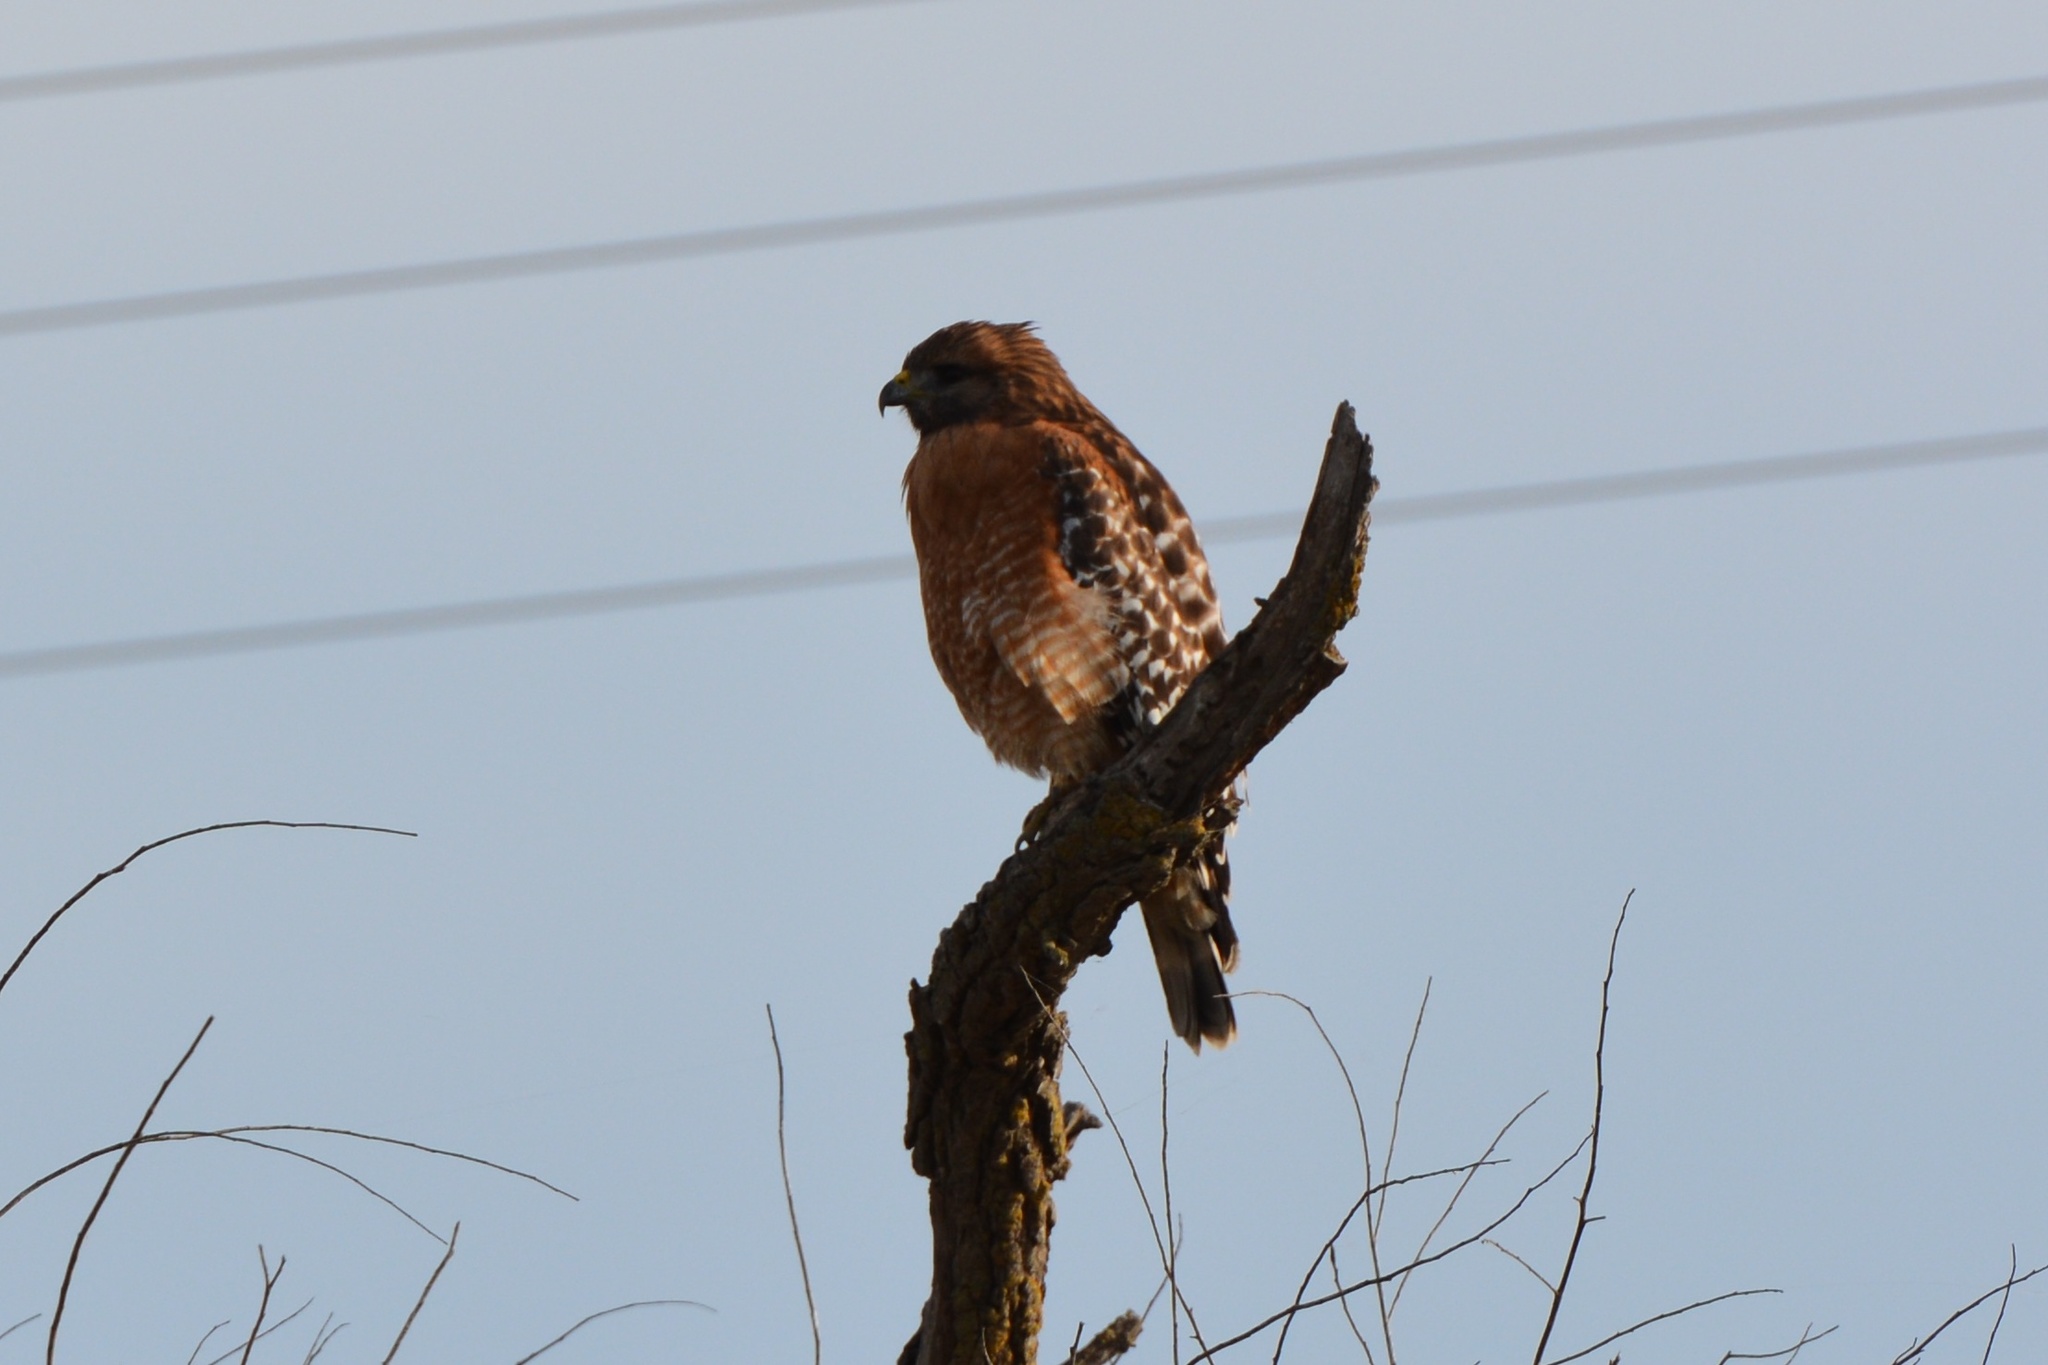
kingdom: Animalia
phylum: Chordata
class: Aves
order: Accipitriformes
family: Accipitridae
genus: Buteo
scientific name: Buteo lineatus
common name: Red-shouldered hawk
